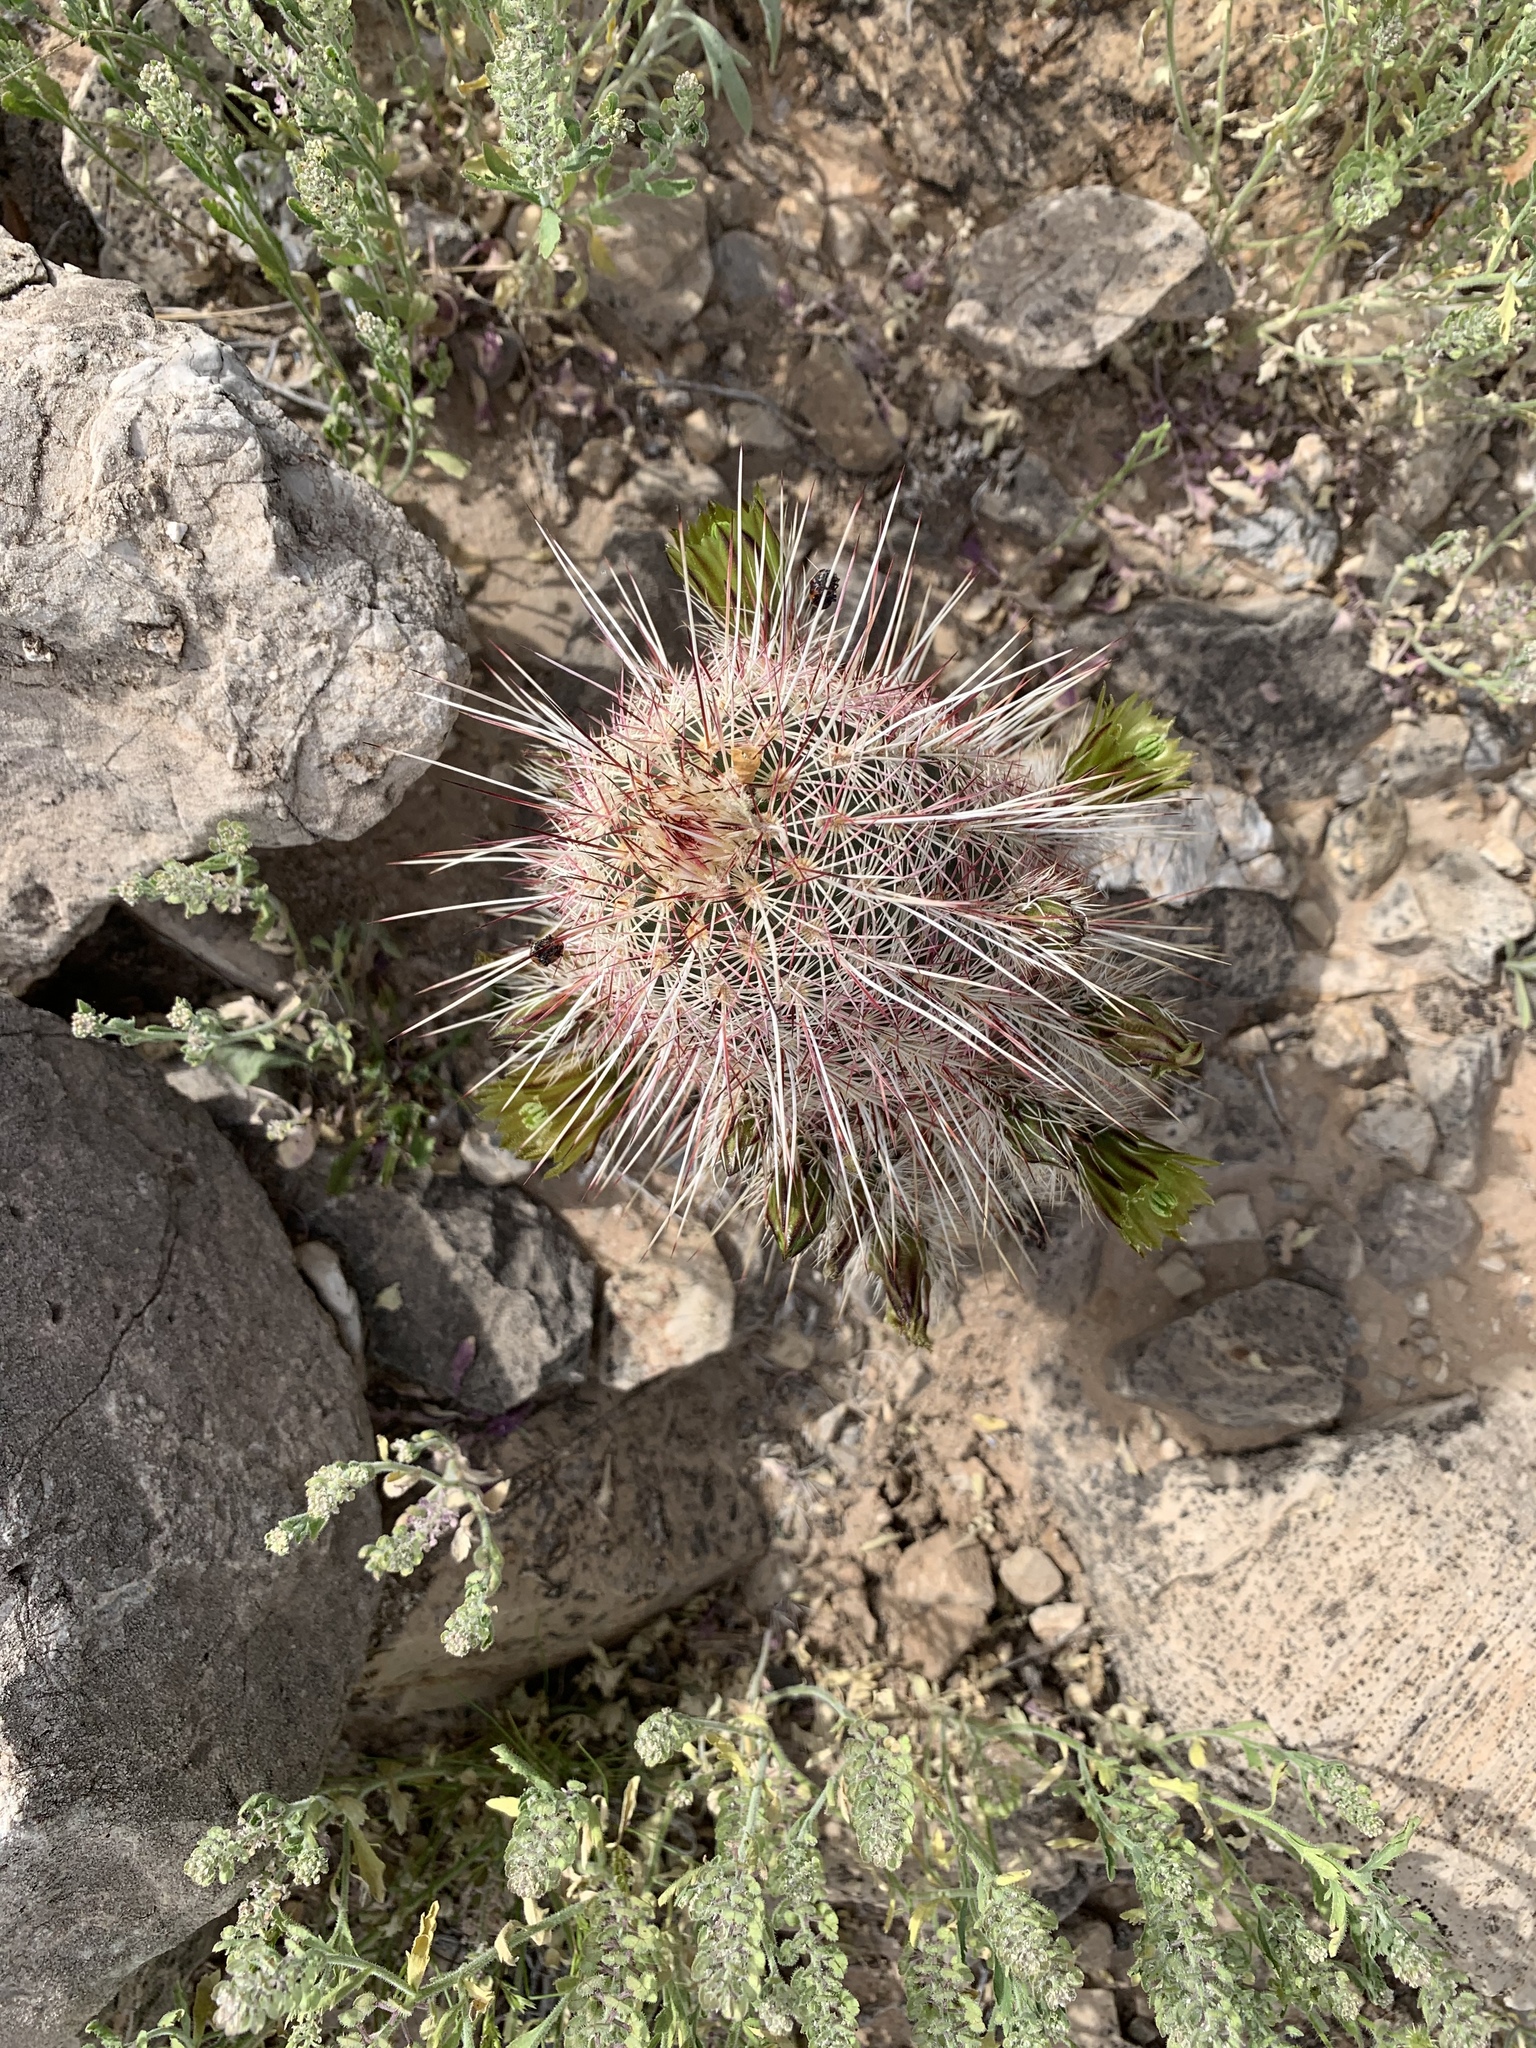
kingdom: Plantae
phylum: Tracheophyta
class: Magnoliopsida
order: Caryophyllales
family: Cactaceae
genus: Echinocereus
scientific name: Echinocereus viridiflorus
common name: Nylon hedgehog cactus
